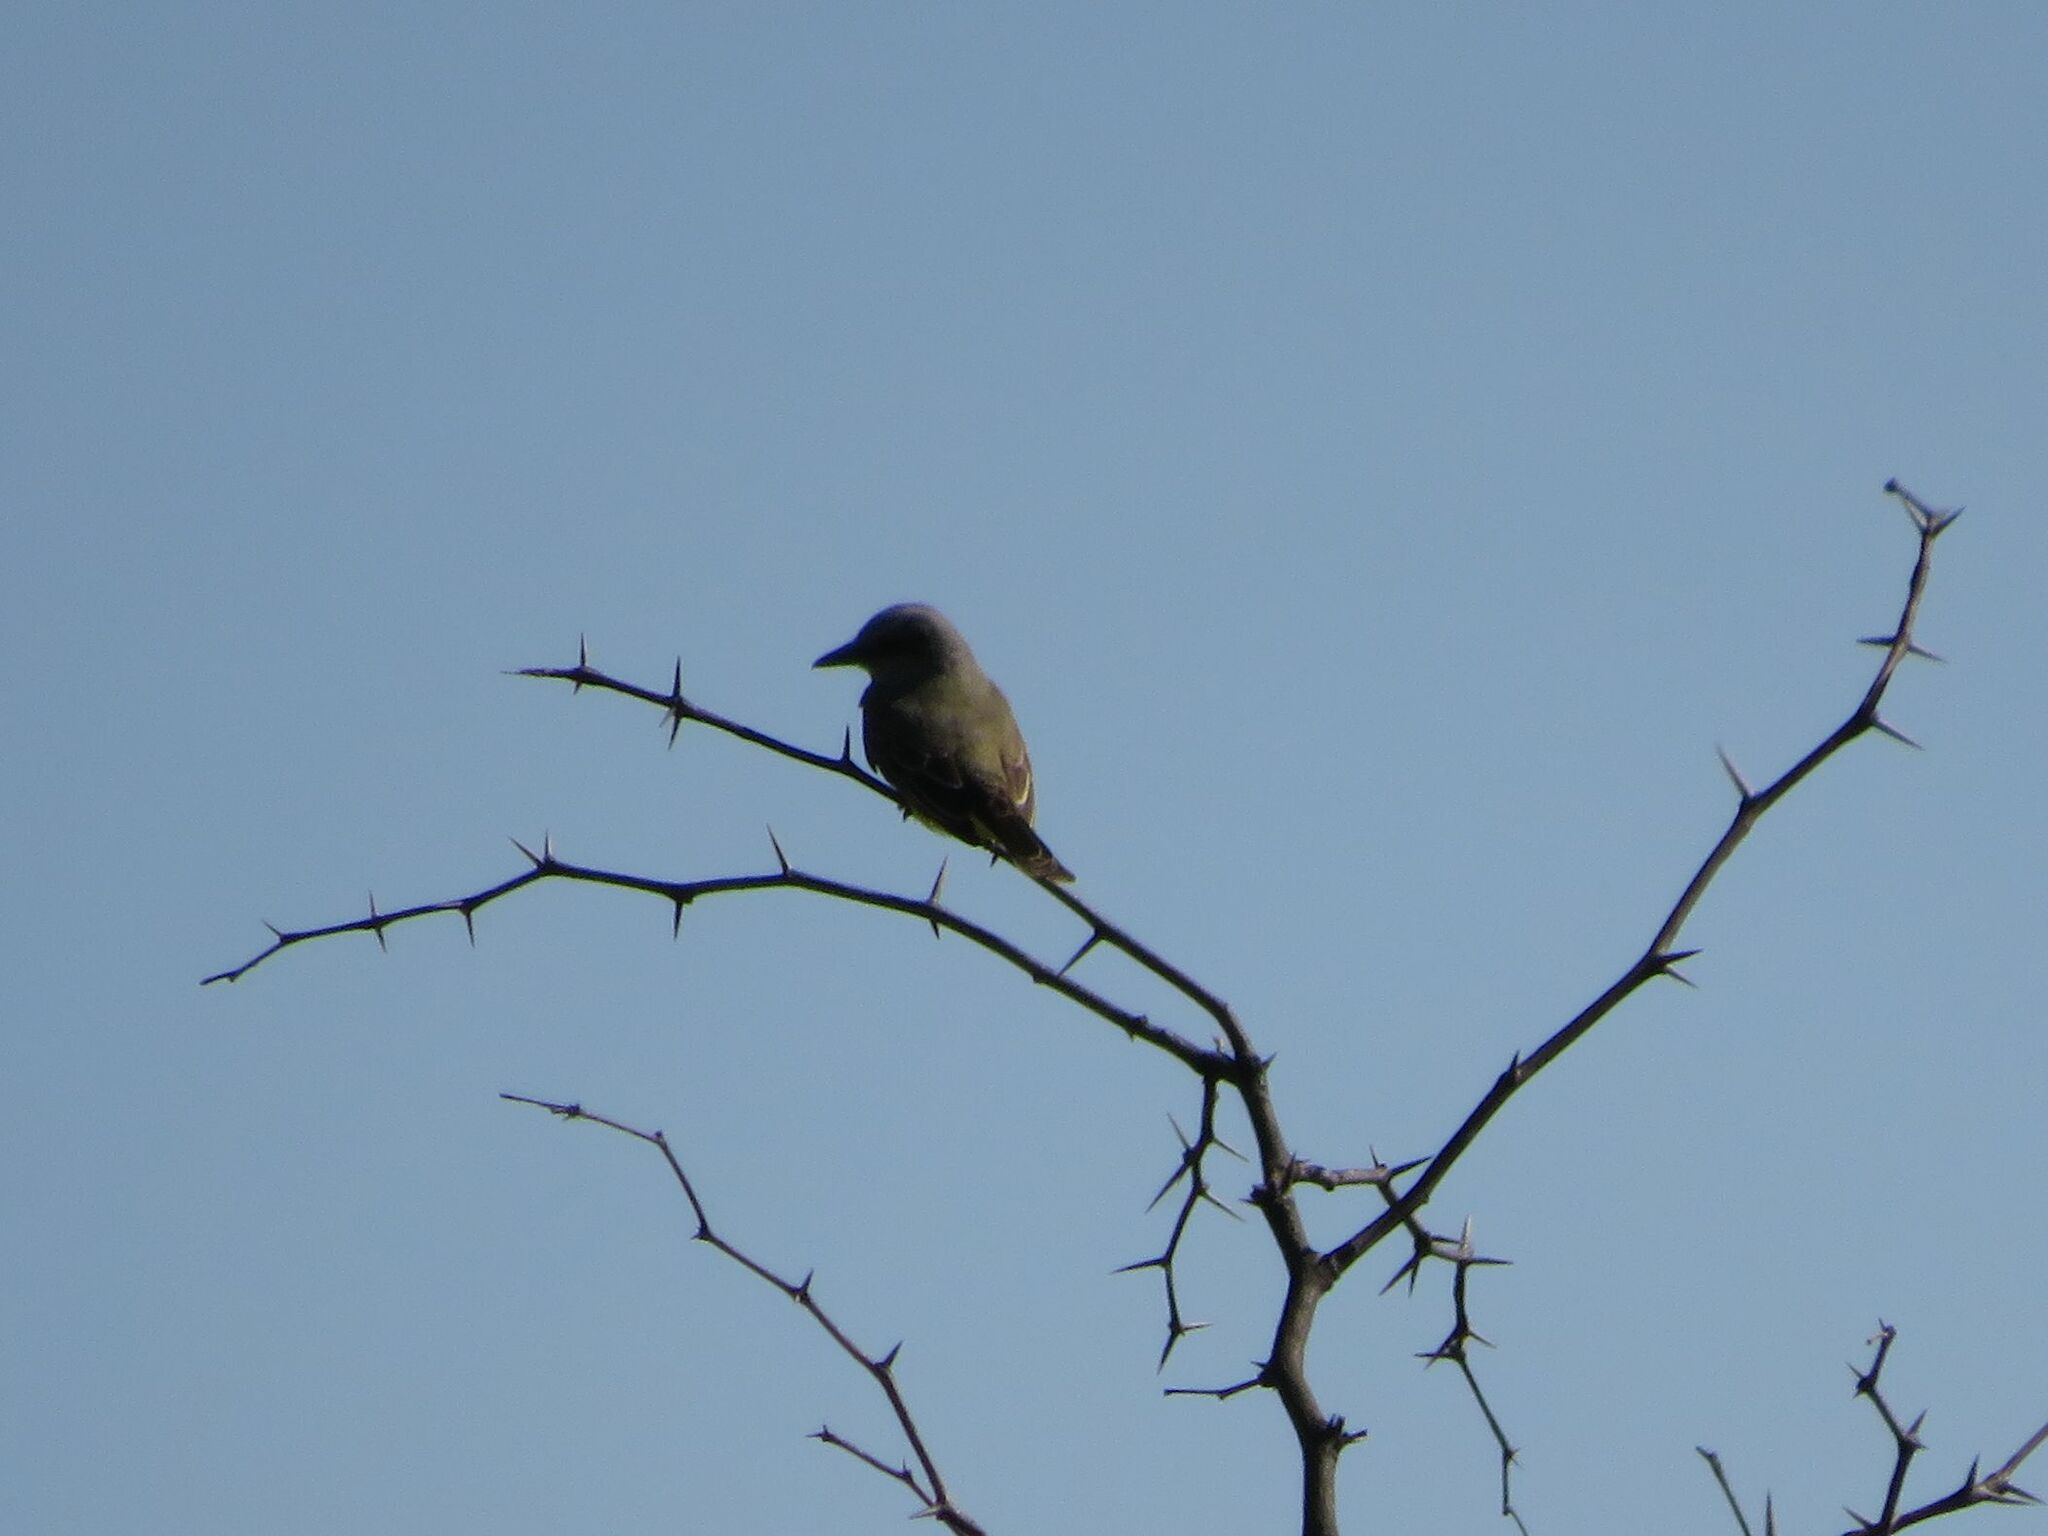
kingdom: Animalia
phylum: Chordata
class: Aves
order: Passeriformes
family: Tyrannidae
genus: Tyrannus
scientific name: Tyrannus melancholicus
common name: Tropical kingbird
